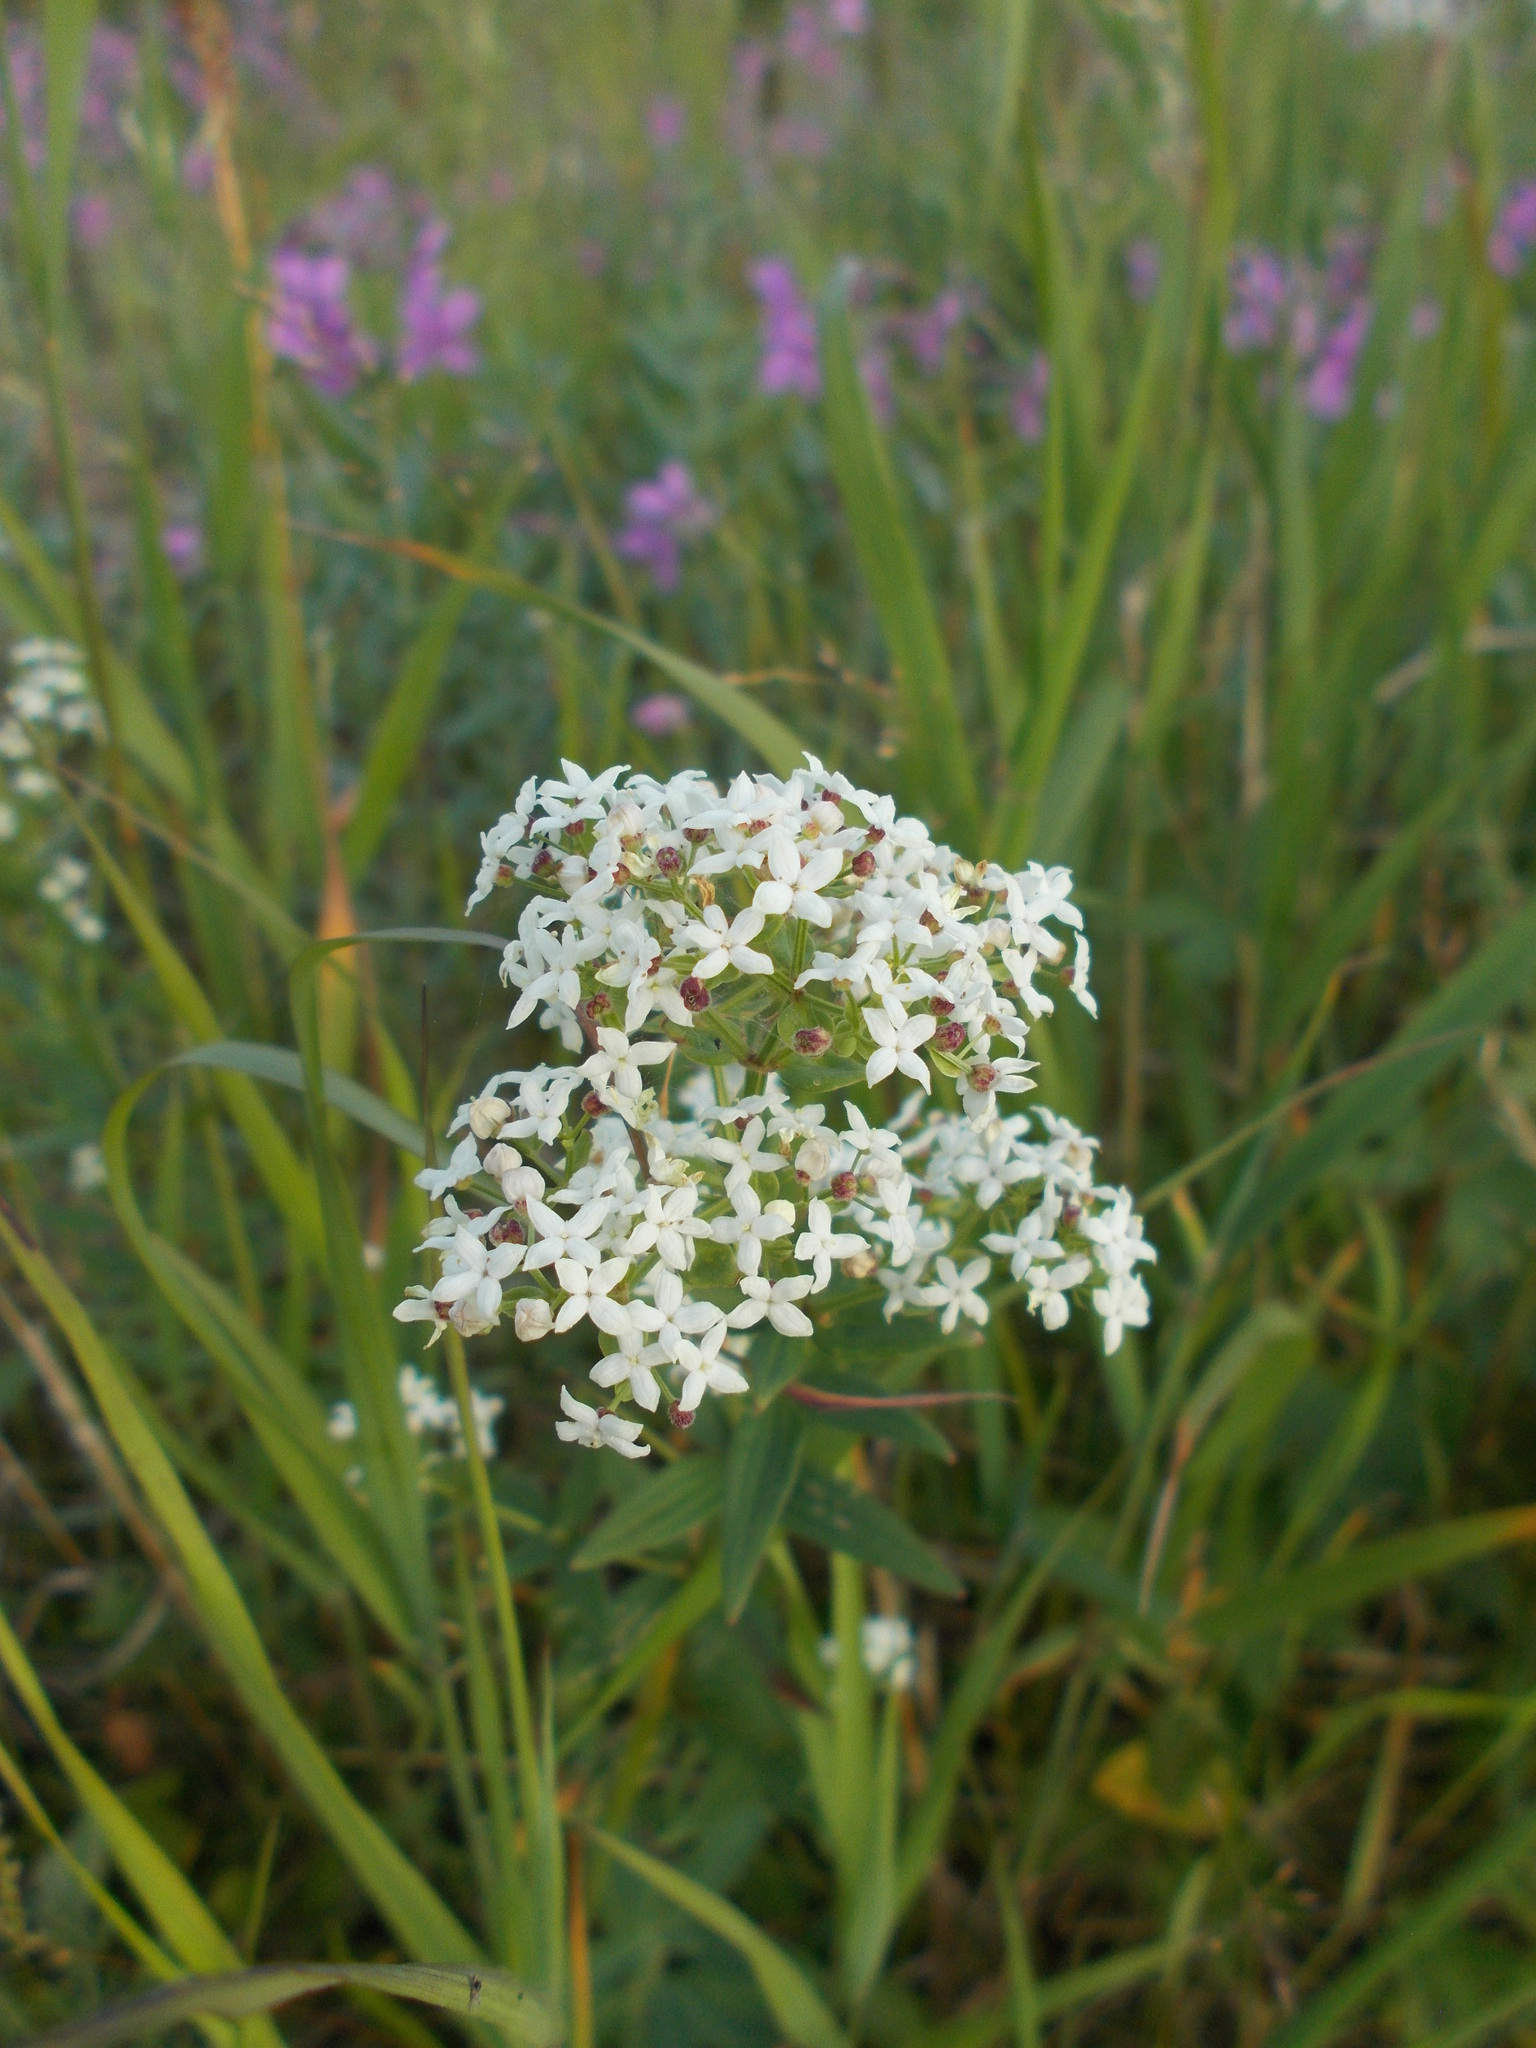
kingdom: Plantae
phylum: Tracheophyta
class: Magnoliopsida
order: Gentianales
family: Rubiaceae
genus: Galium
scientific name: Galium boreale
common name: Northern bedstraw
